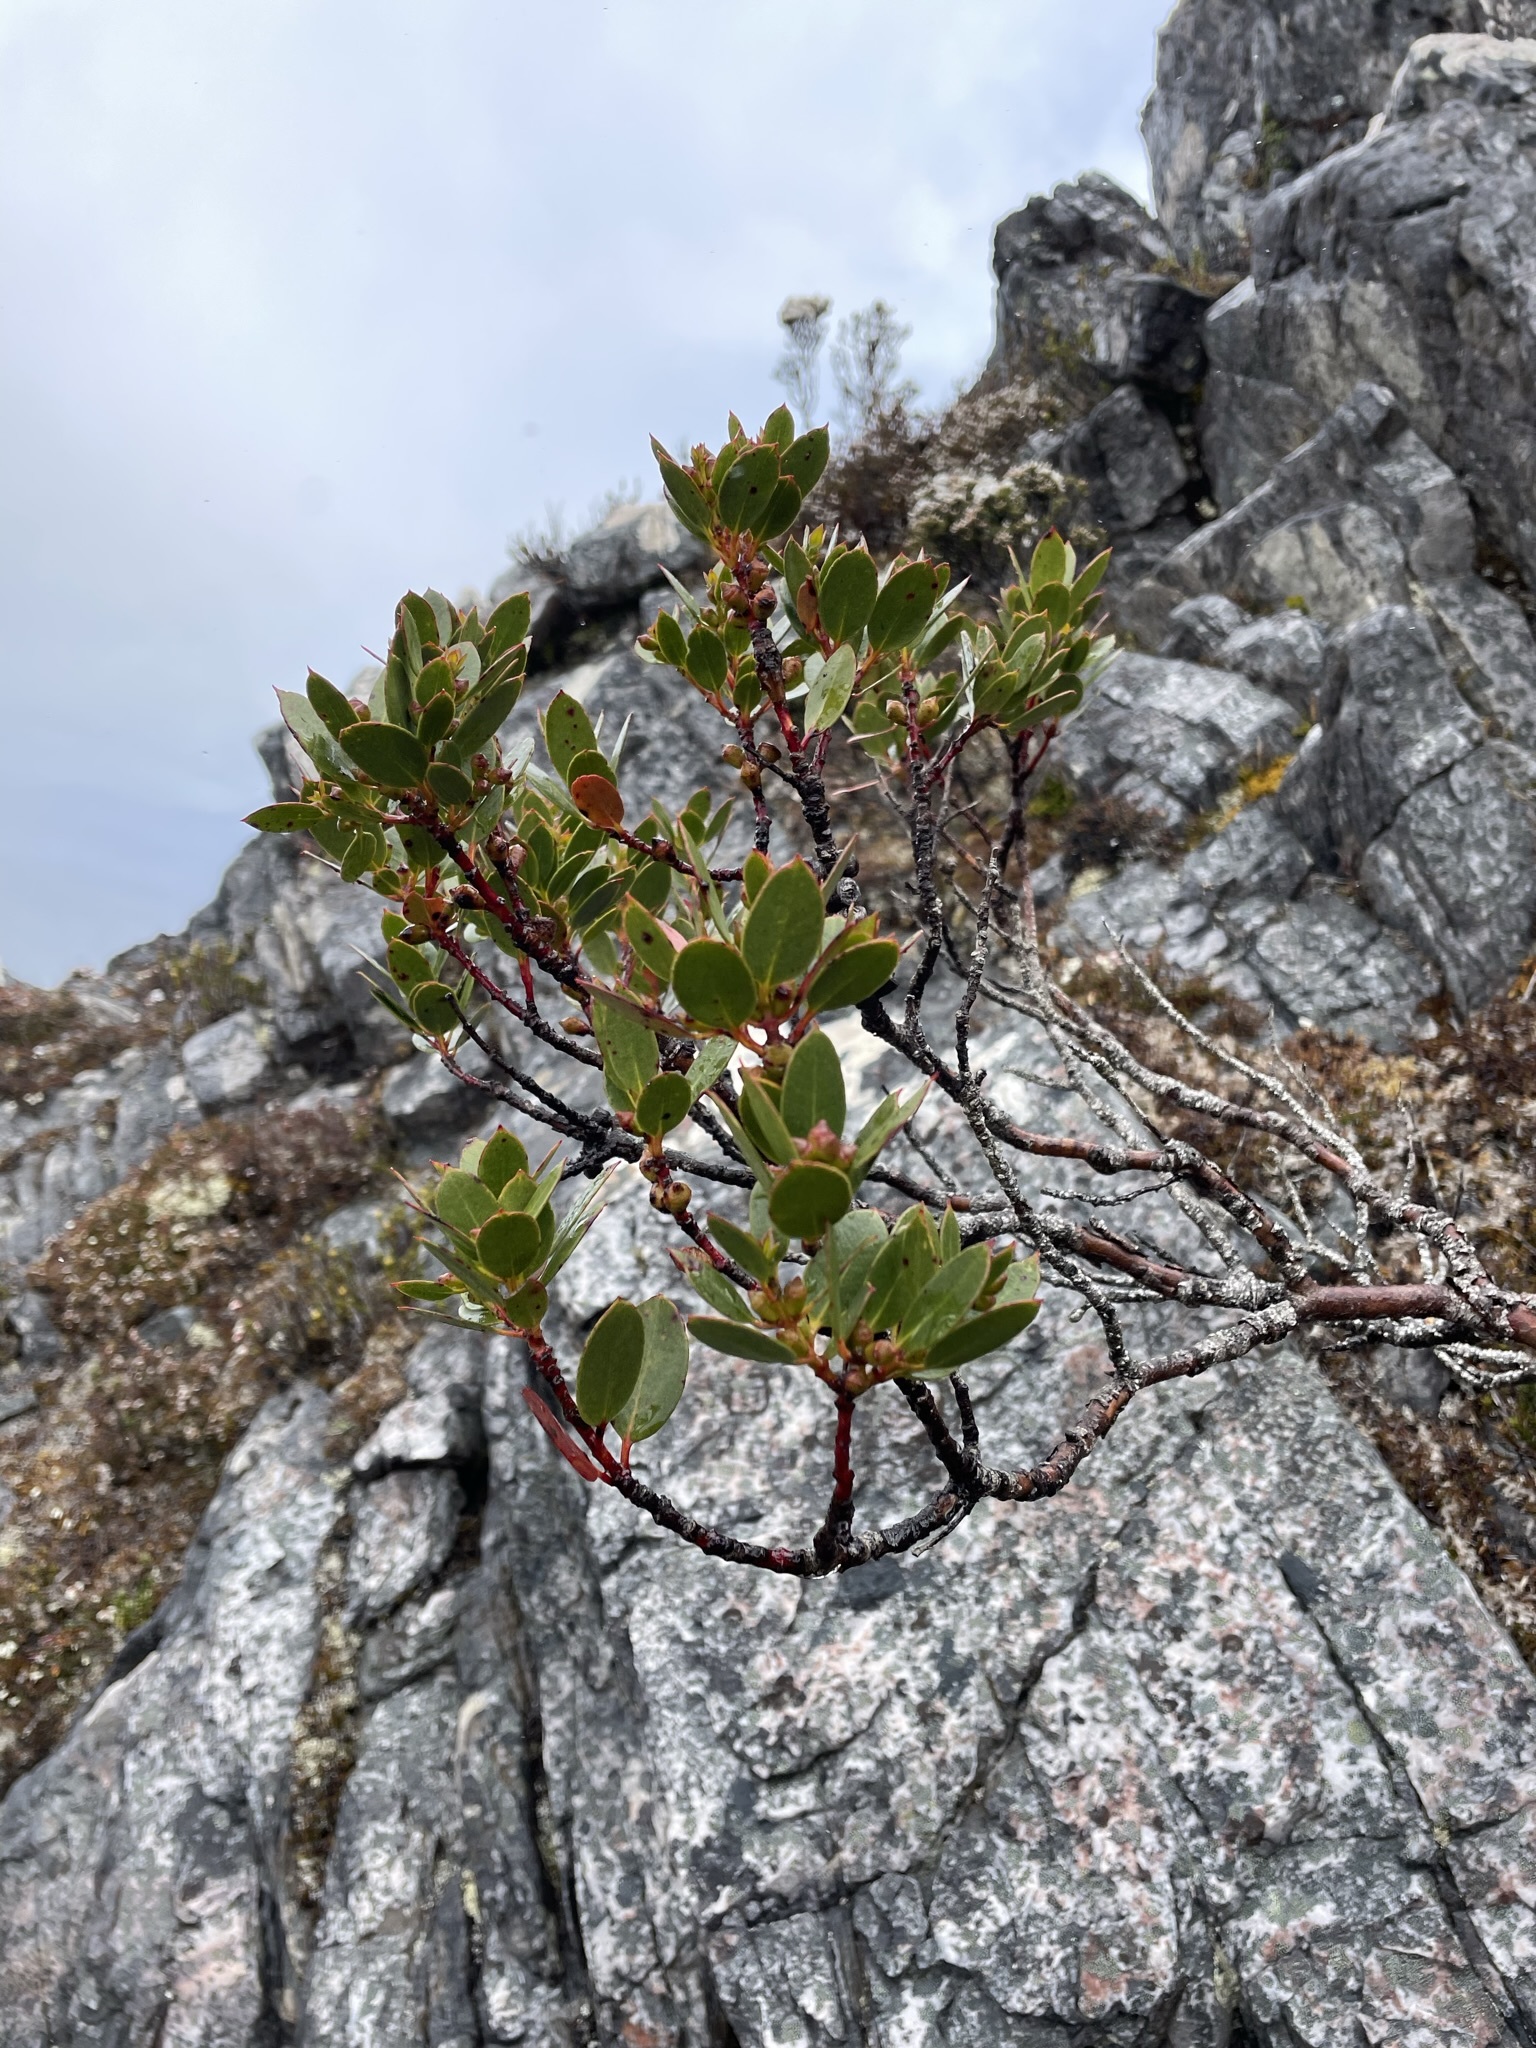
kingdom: Plantae
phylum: Tracheophyta
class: Magnoliopsida
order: Myrtales
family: Myrtaceae
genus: Eucalyptus
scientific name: Eucalyptus vernicosa
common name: Varnished gum
